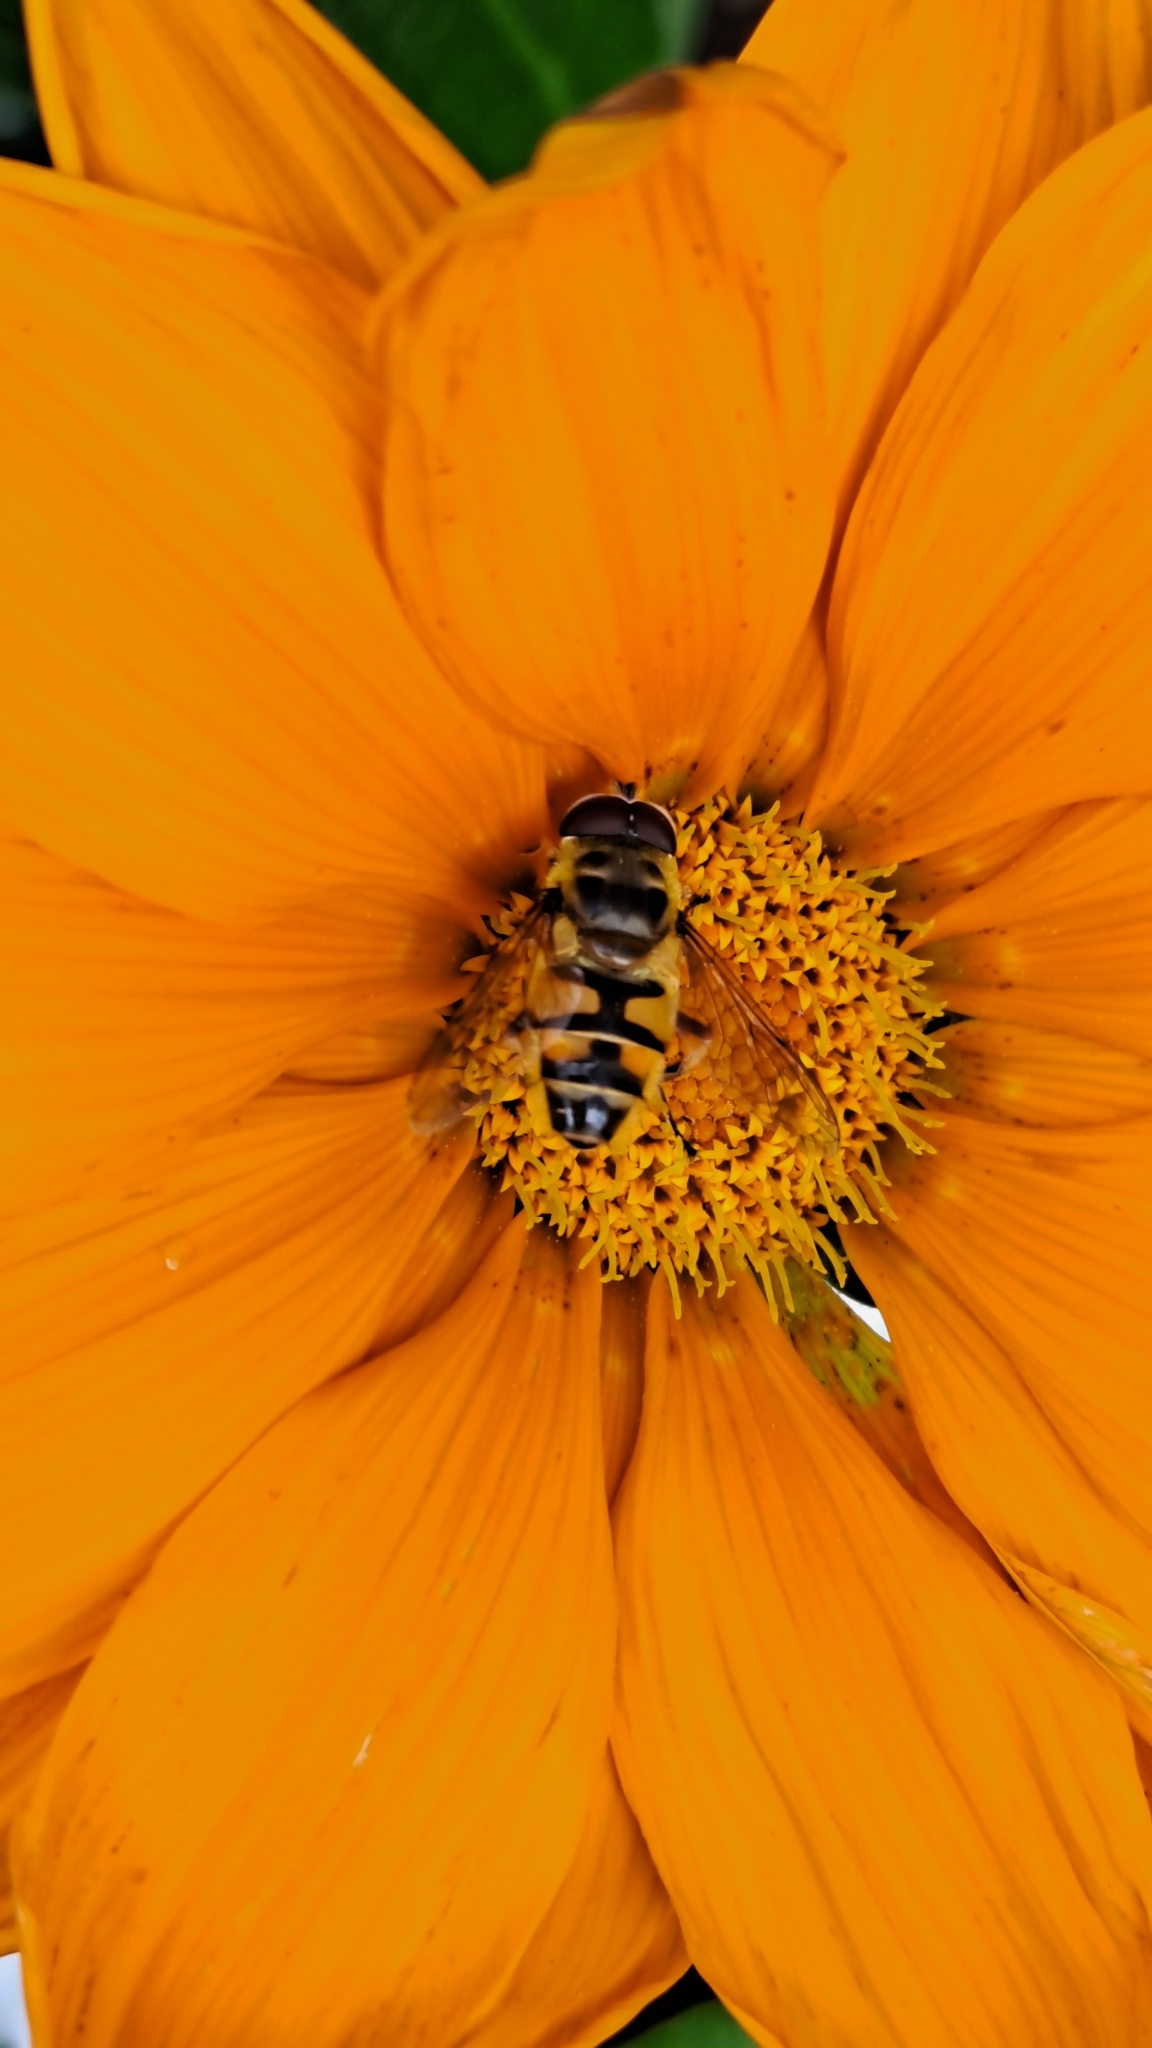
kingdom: Animalia
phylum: Arthropoda
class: Insecta
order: Diptera
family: Syrphidae
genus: Myathropa
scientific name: Myathropa florea
